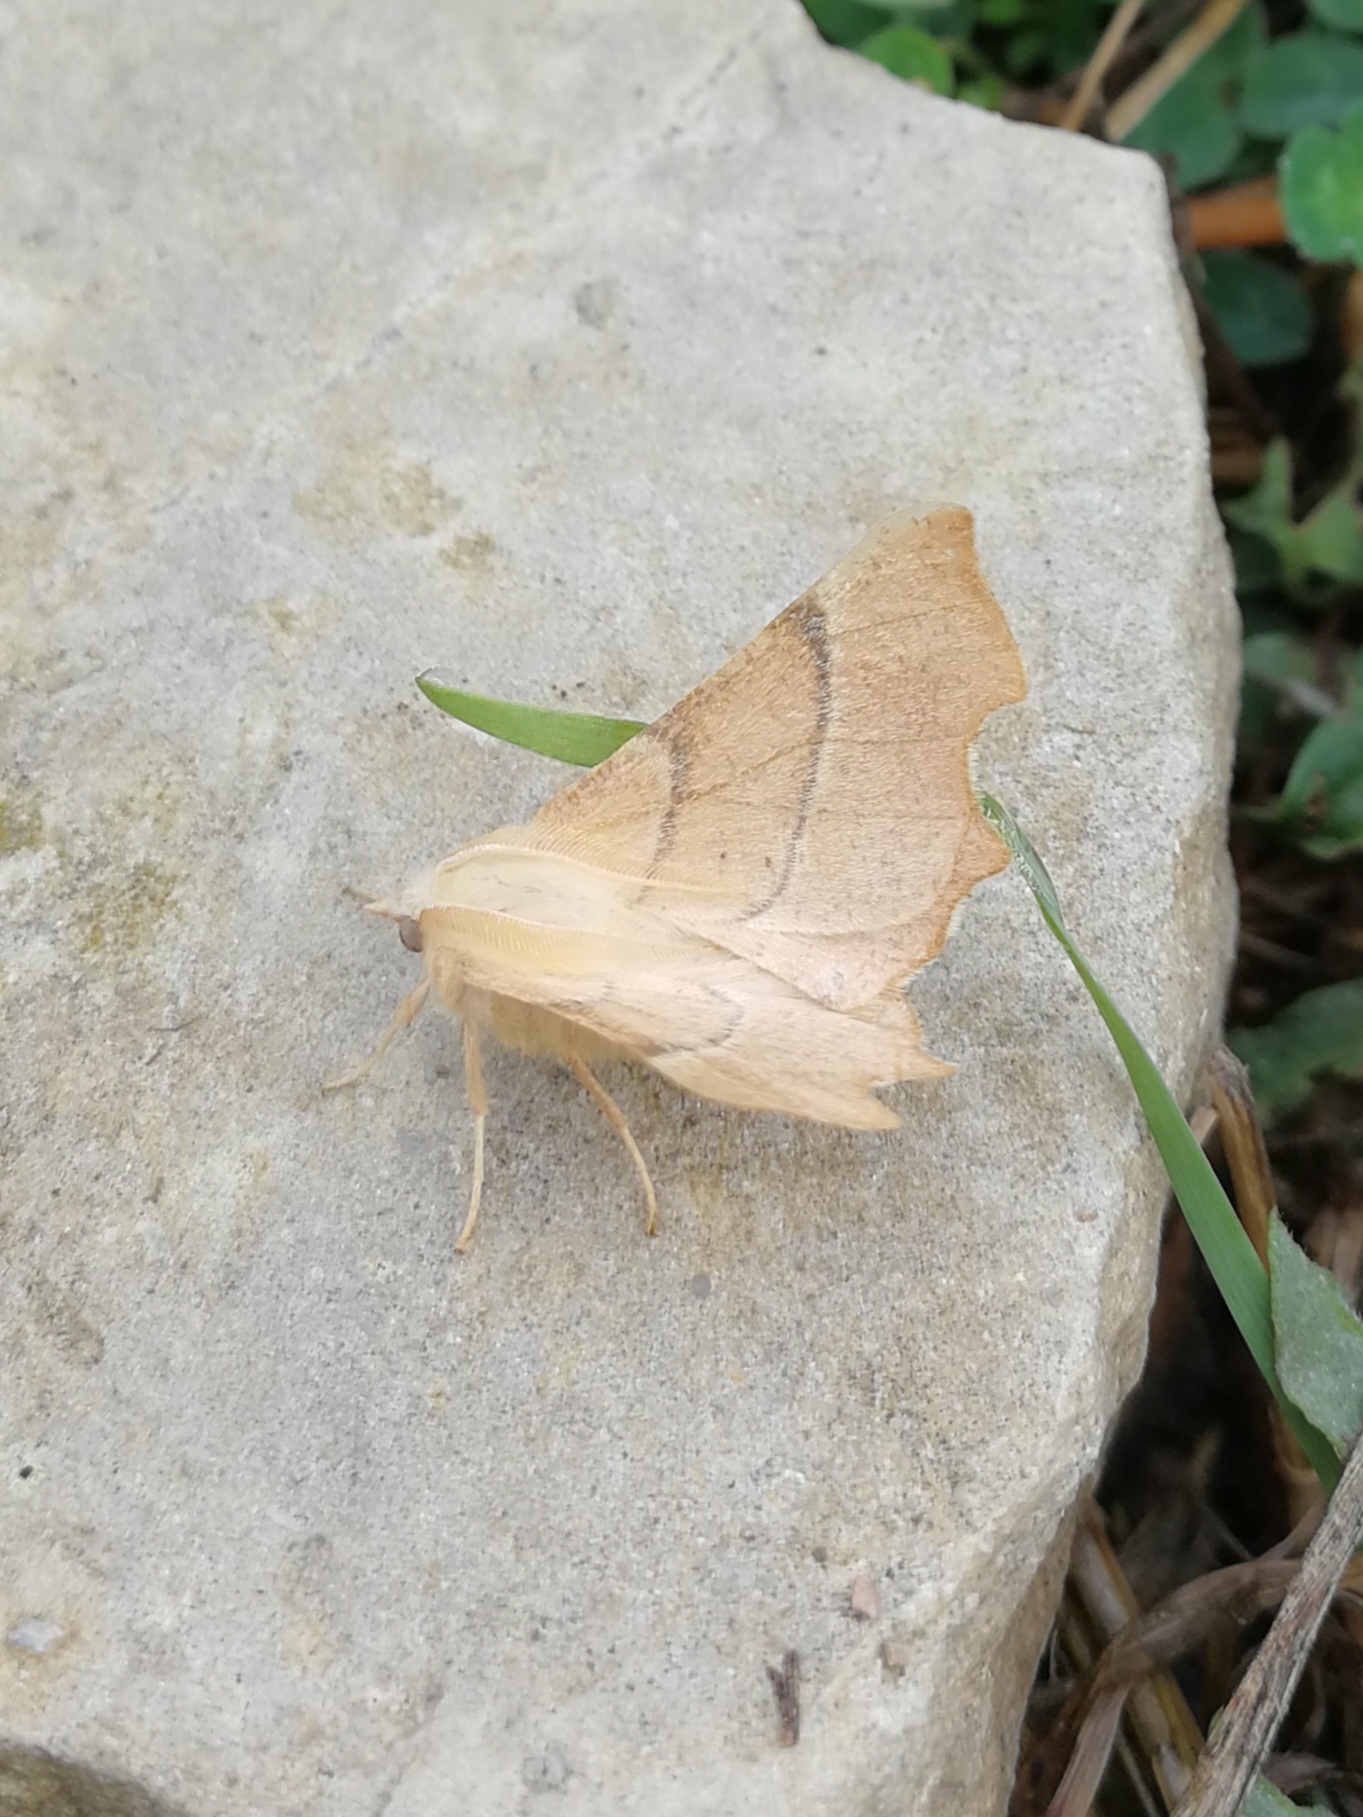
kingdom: Animalia
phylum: Arthropoda
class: Insecta
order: Lepidoptera
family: Geometridae
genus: Ennomos
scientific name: Ennomos quercaria
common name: Clouded august thorn
